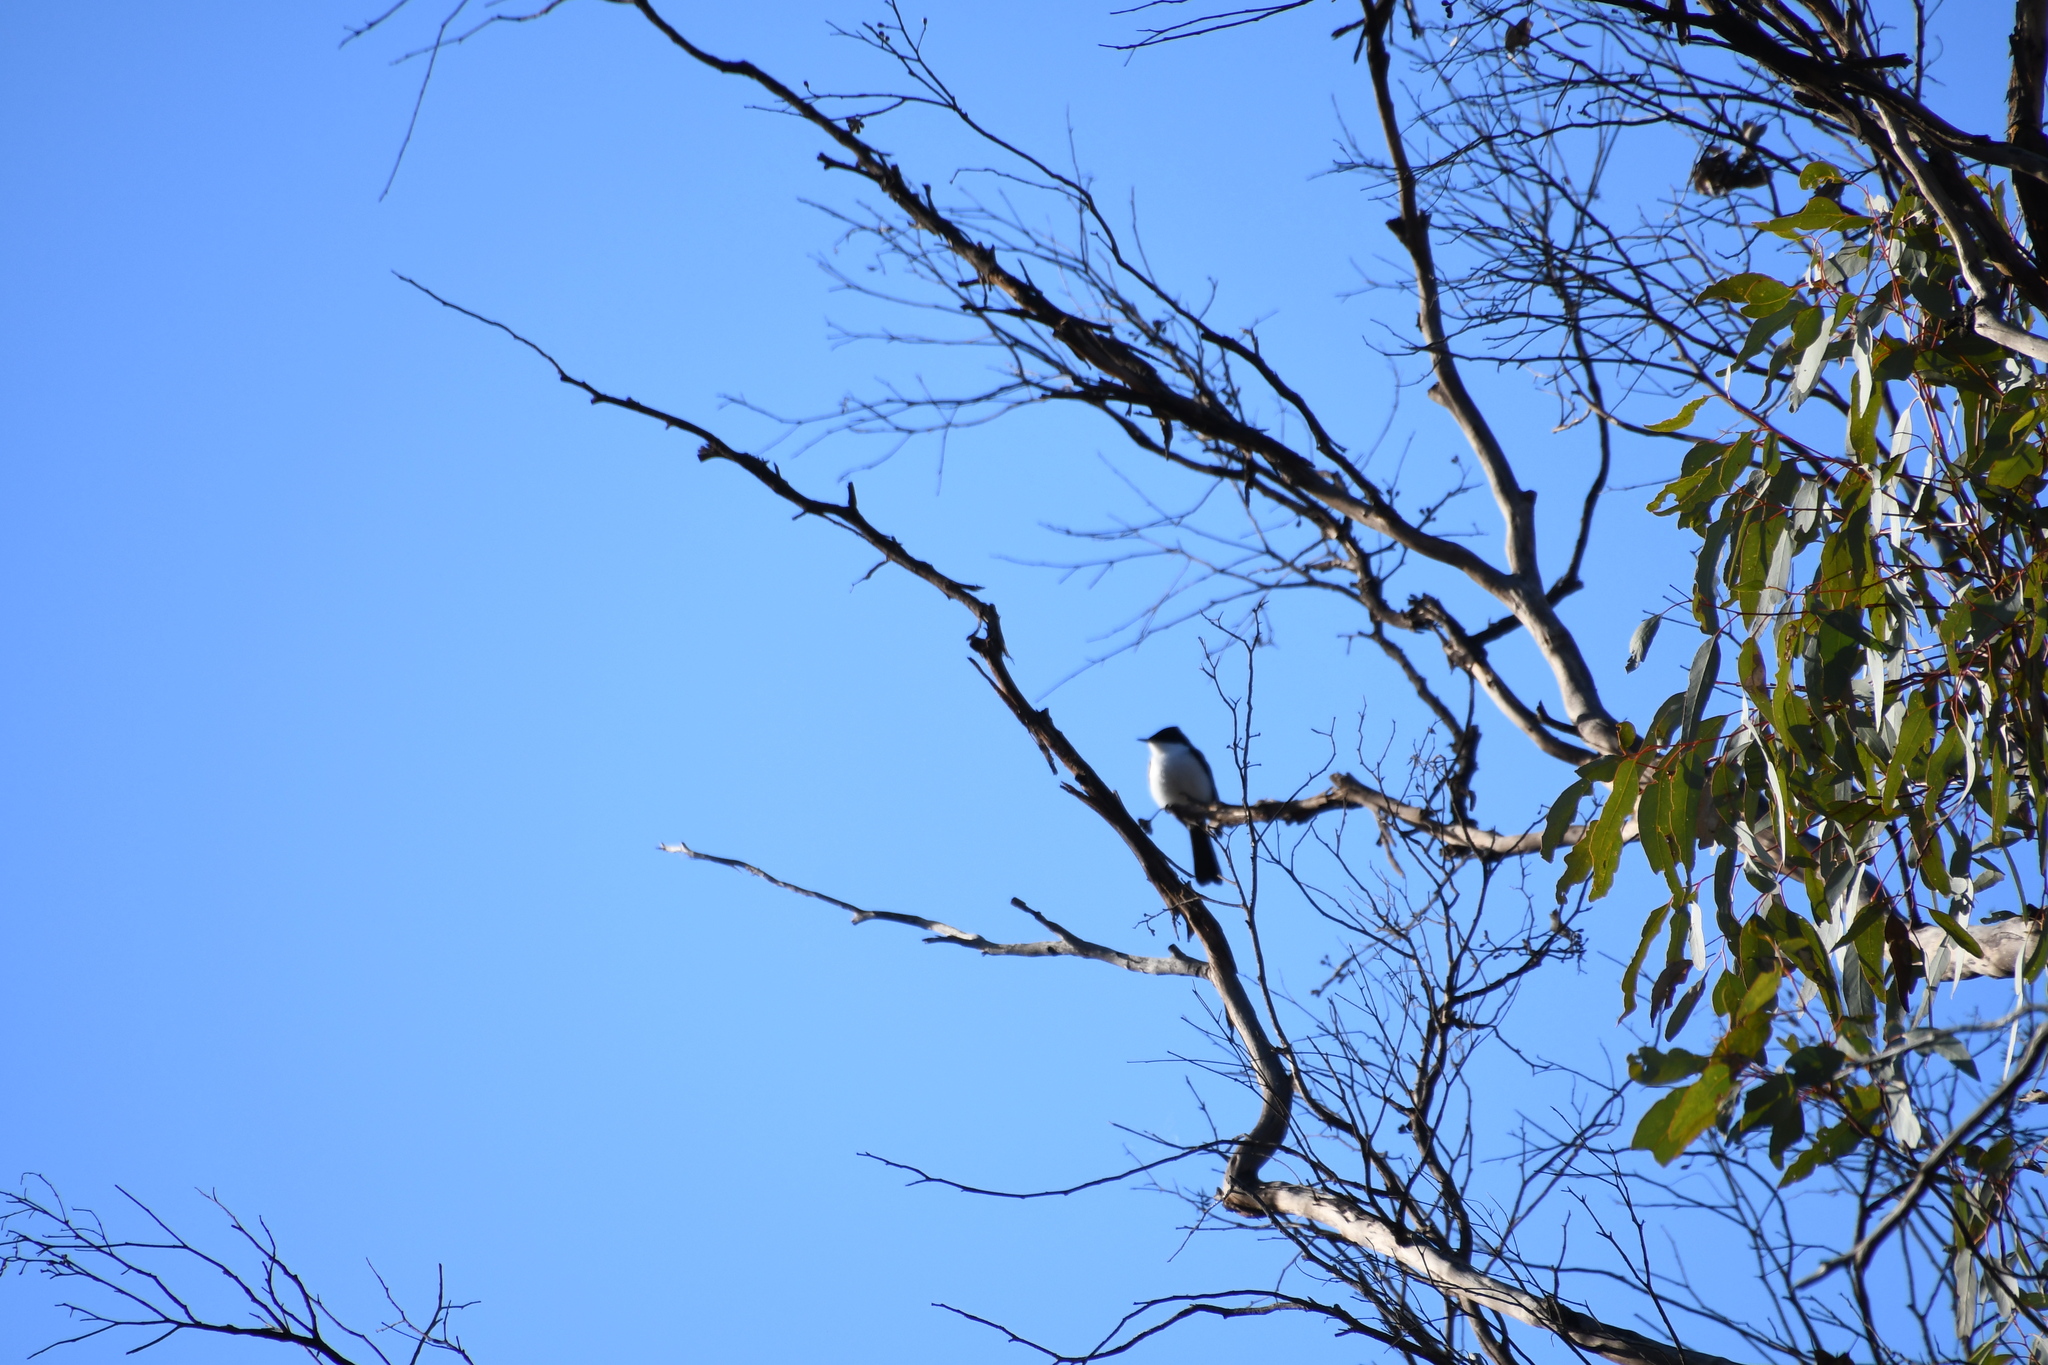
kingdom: Animalia
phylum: Chordata
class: Aves
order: Passeriformes
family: Monarchidae
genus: Myiagra
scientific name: Myiagra inquieta
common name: Restless flycatcher
